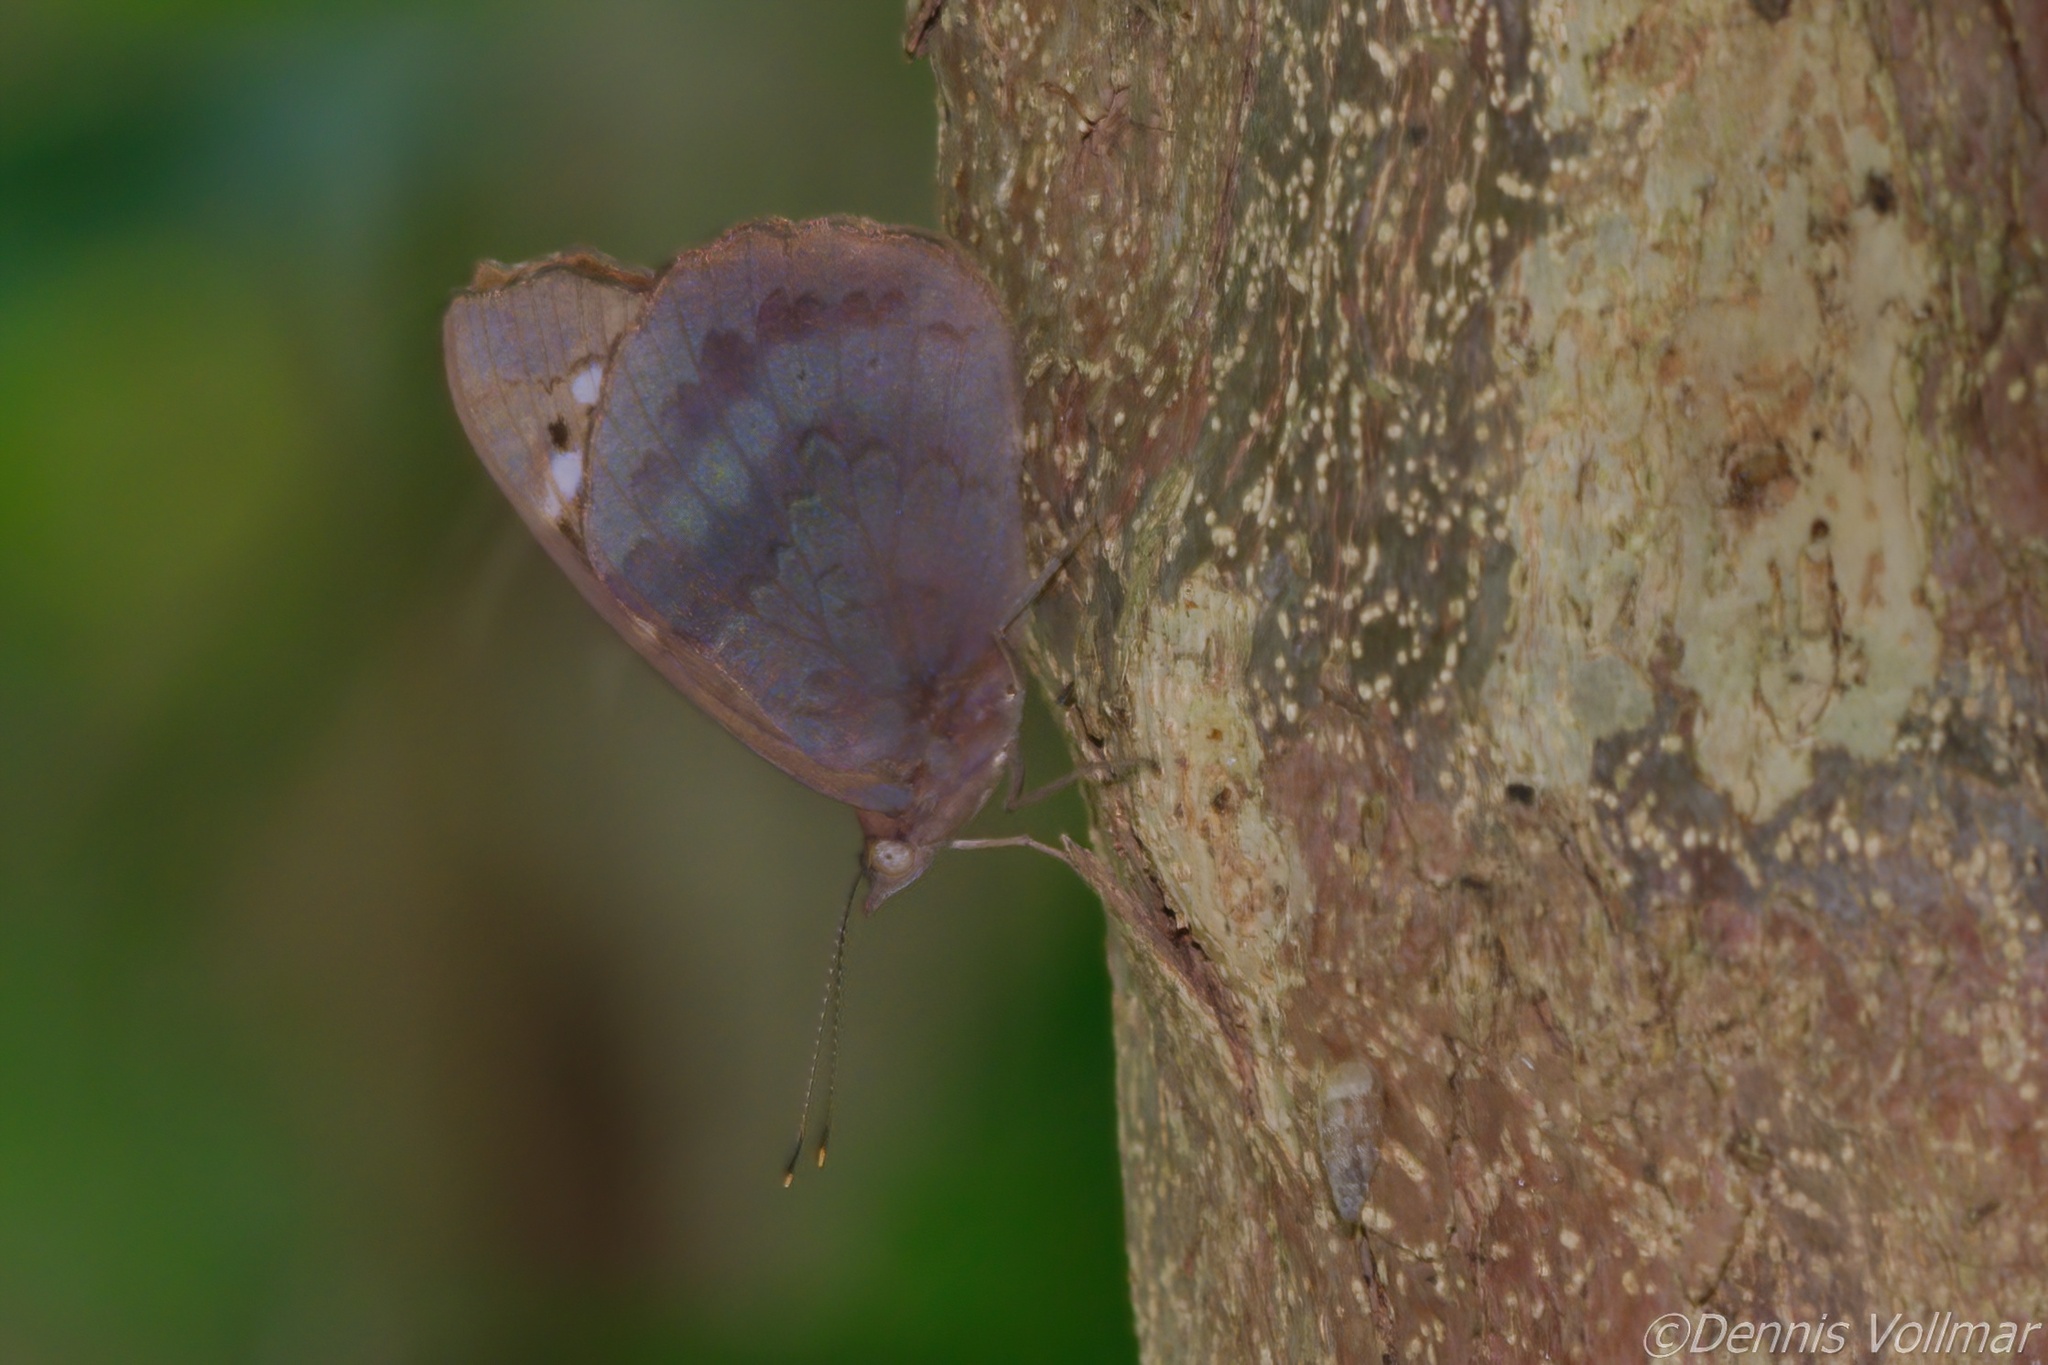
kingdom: Animalia
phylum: Arthropoda
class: Insecta
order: Lepidoptera
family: Nymphalidae
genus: Eunica
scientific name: Eunica tatila
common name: Florida purplewing
